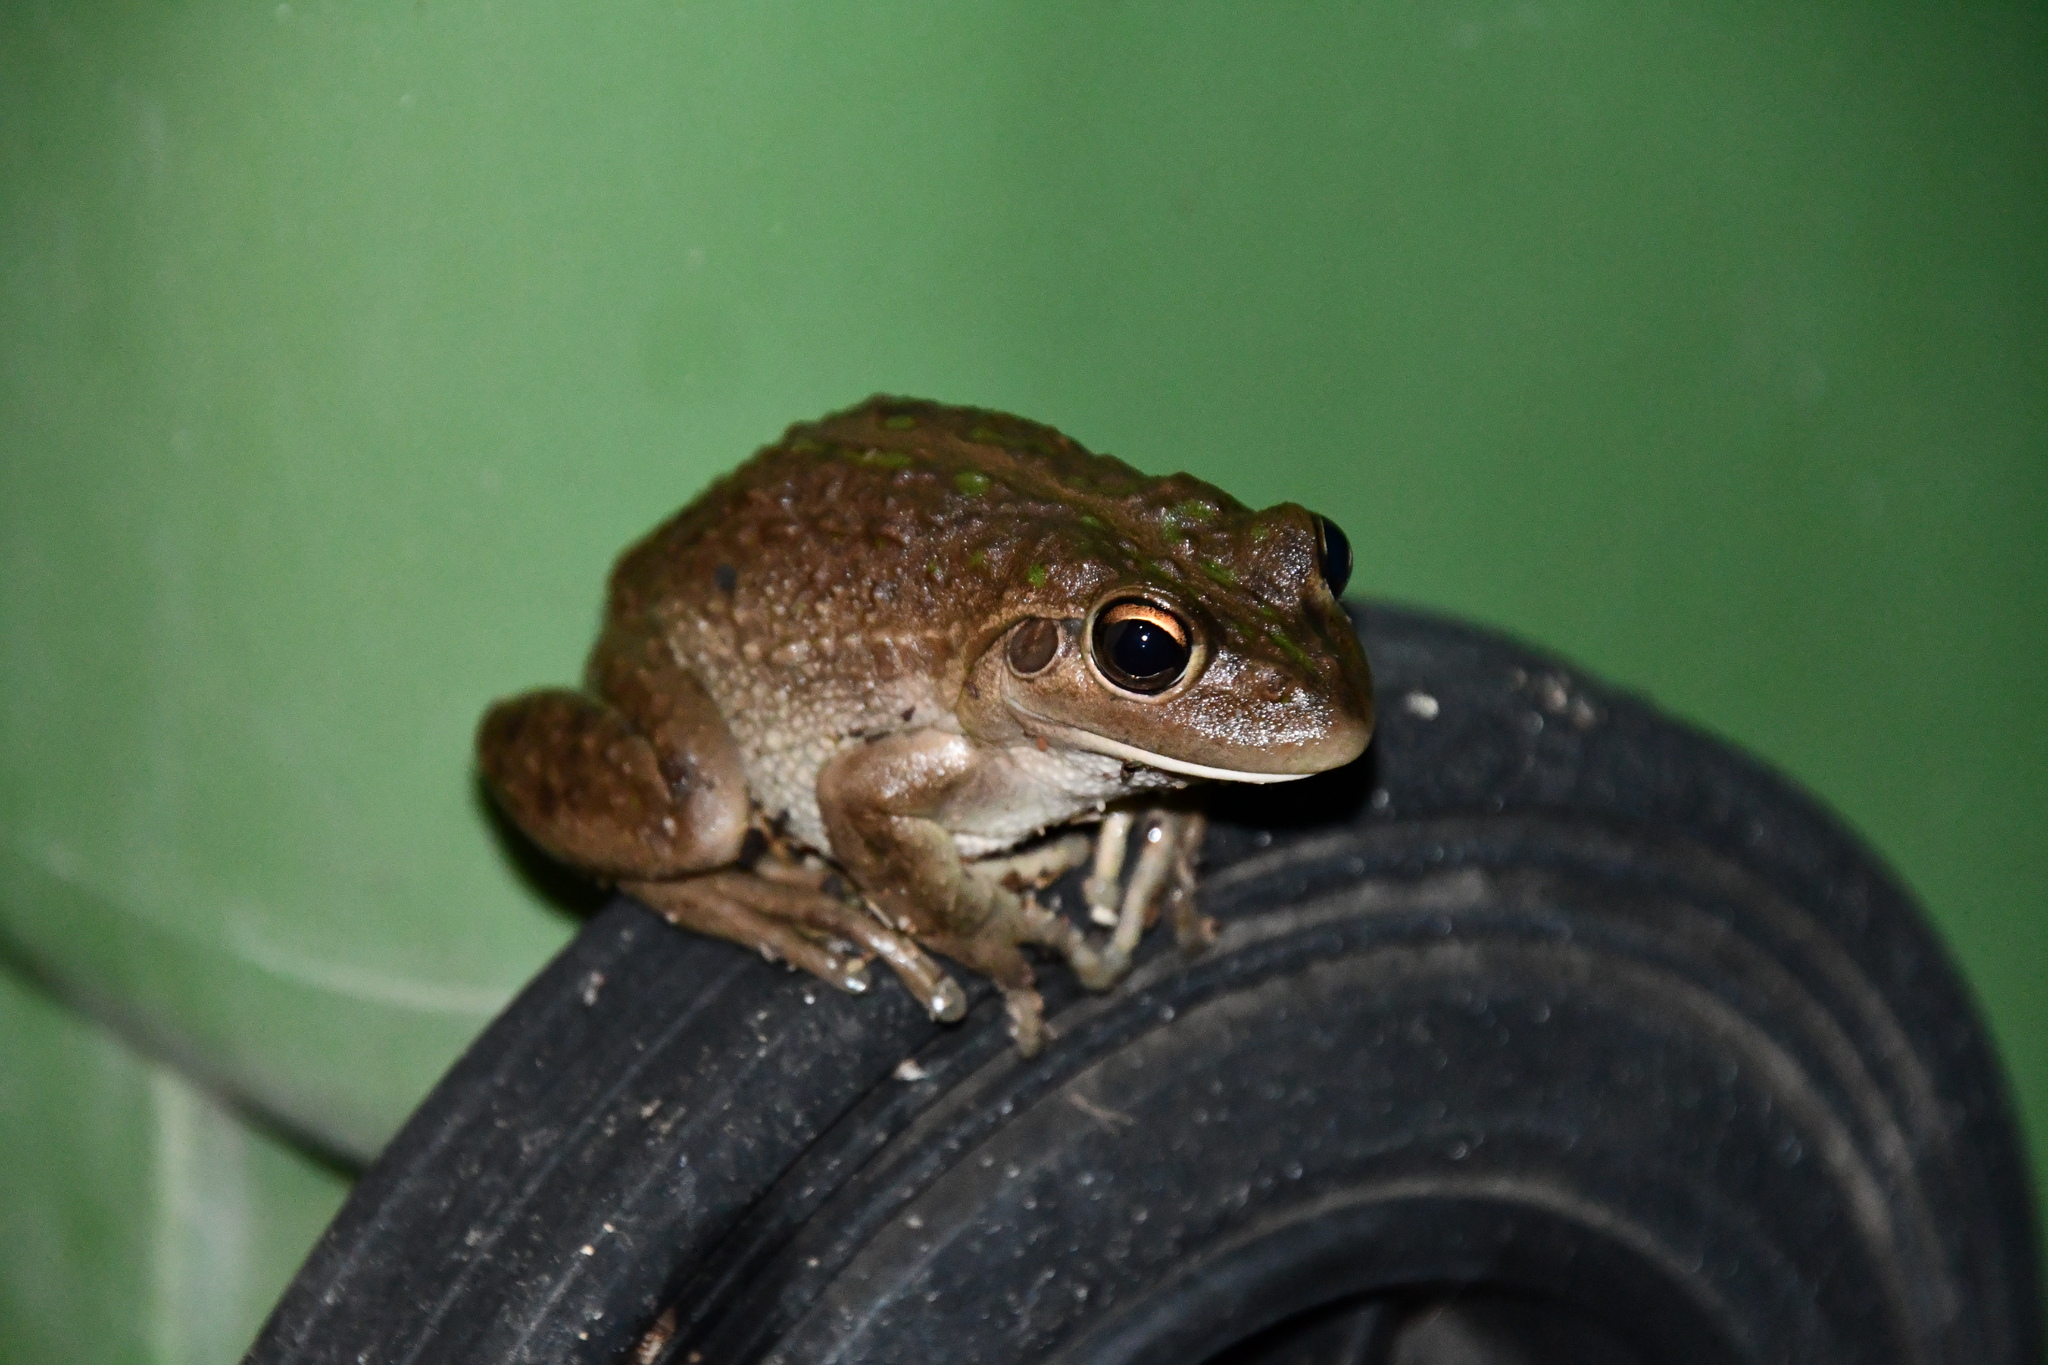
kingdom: Animalia
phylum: Chordata
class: Amphibia
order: Anura
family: Pelodryadidae
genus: Ranoidea
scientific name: Ranoidea moorei
